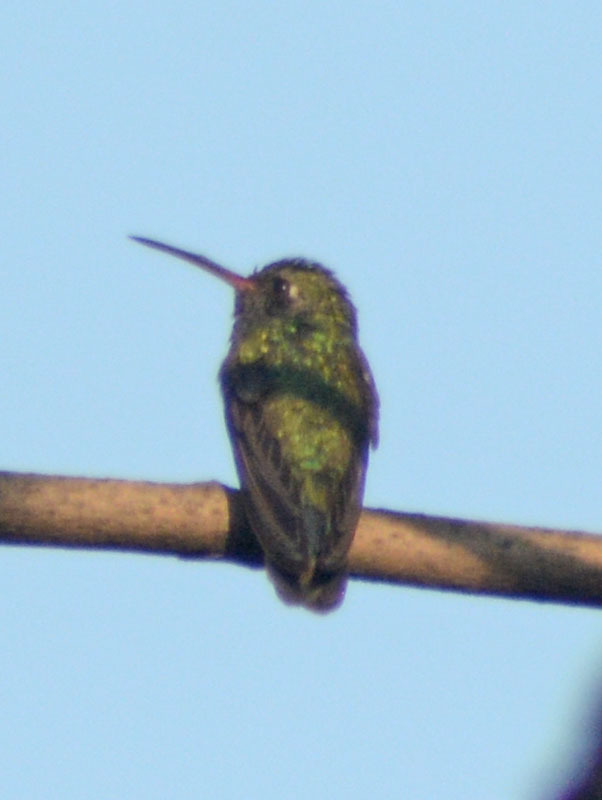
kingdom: Animalia
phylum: Chordata
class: Aves
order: Apodiformes
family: Trochilidae
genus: Cynanthus
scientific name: Cynanthus latirostris
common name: Broad-billed hummingbird
